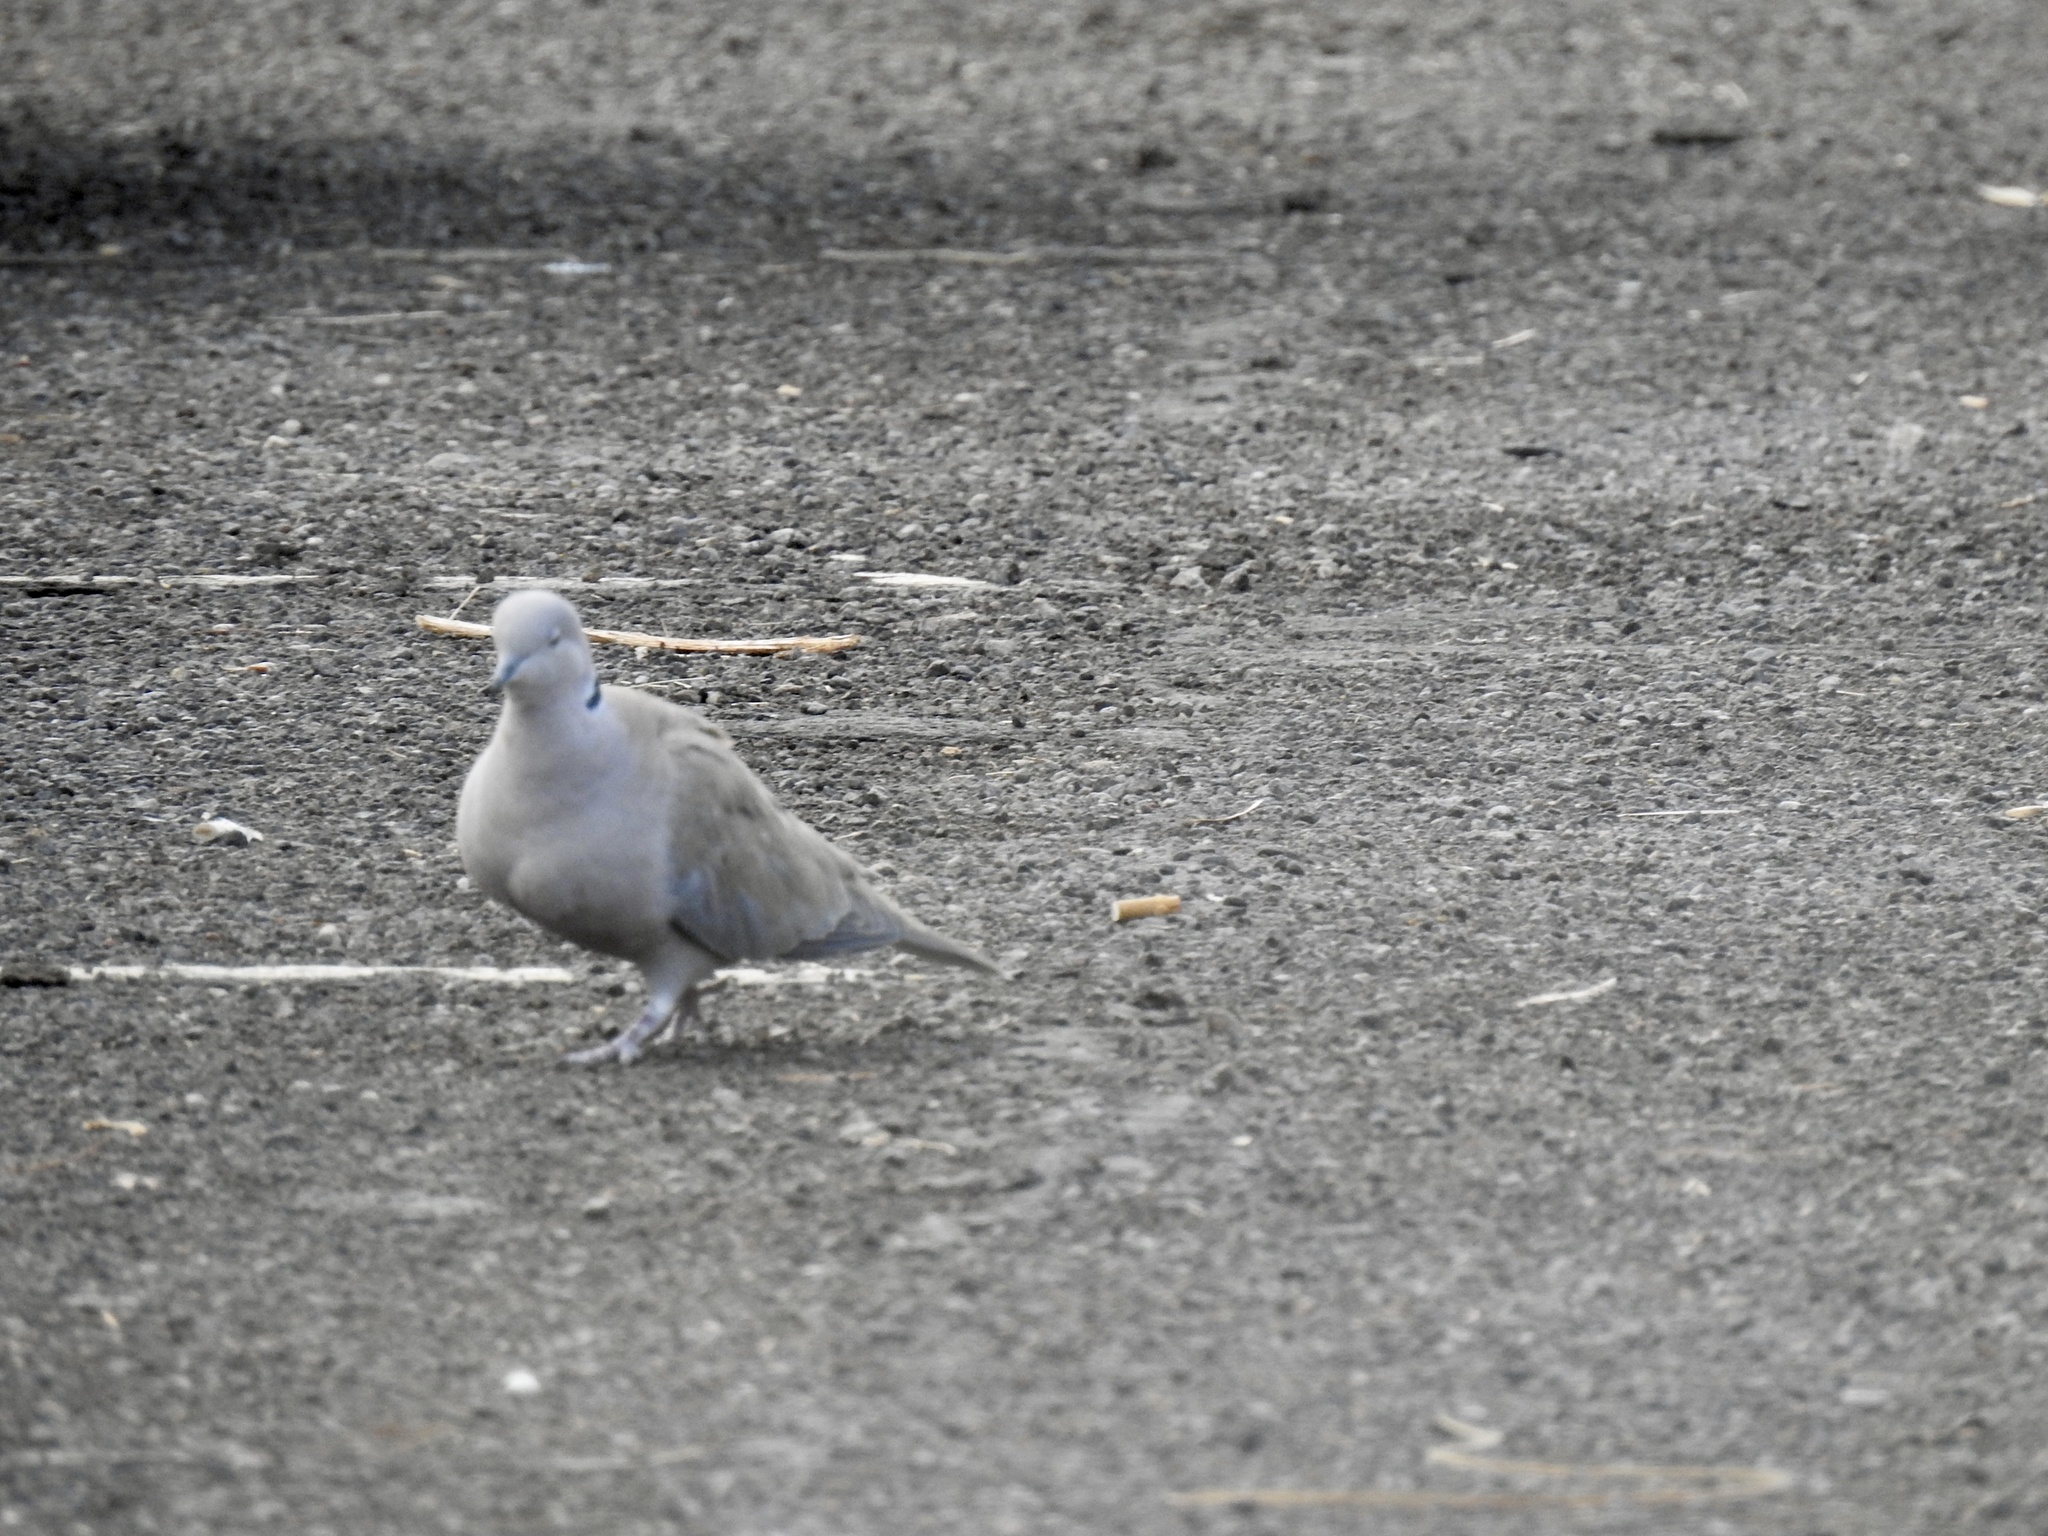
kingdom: Animalia
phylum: Chordata
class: Aves
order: Columbiformes
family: Columbidae
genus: Streptopelia
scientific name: Streptopelia decaocto
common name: Eurasian collared dove
